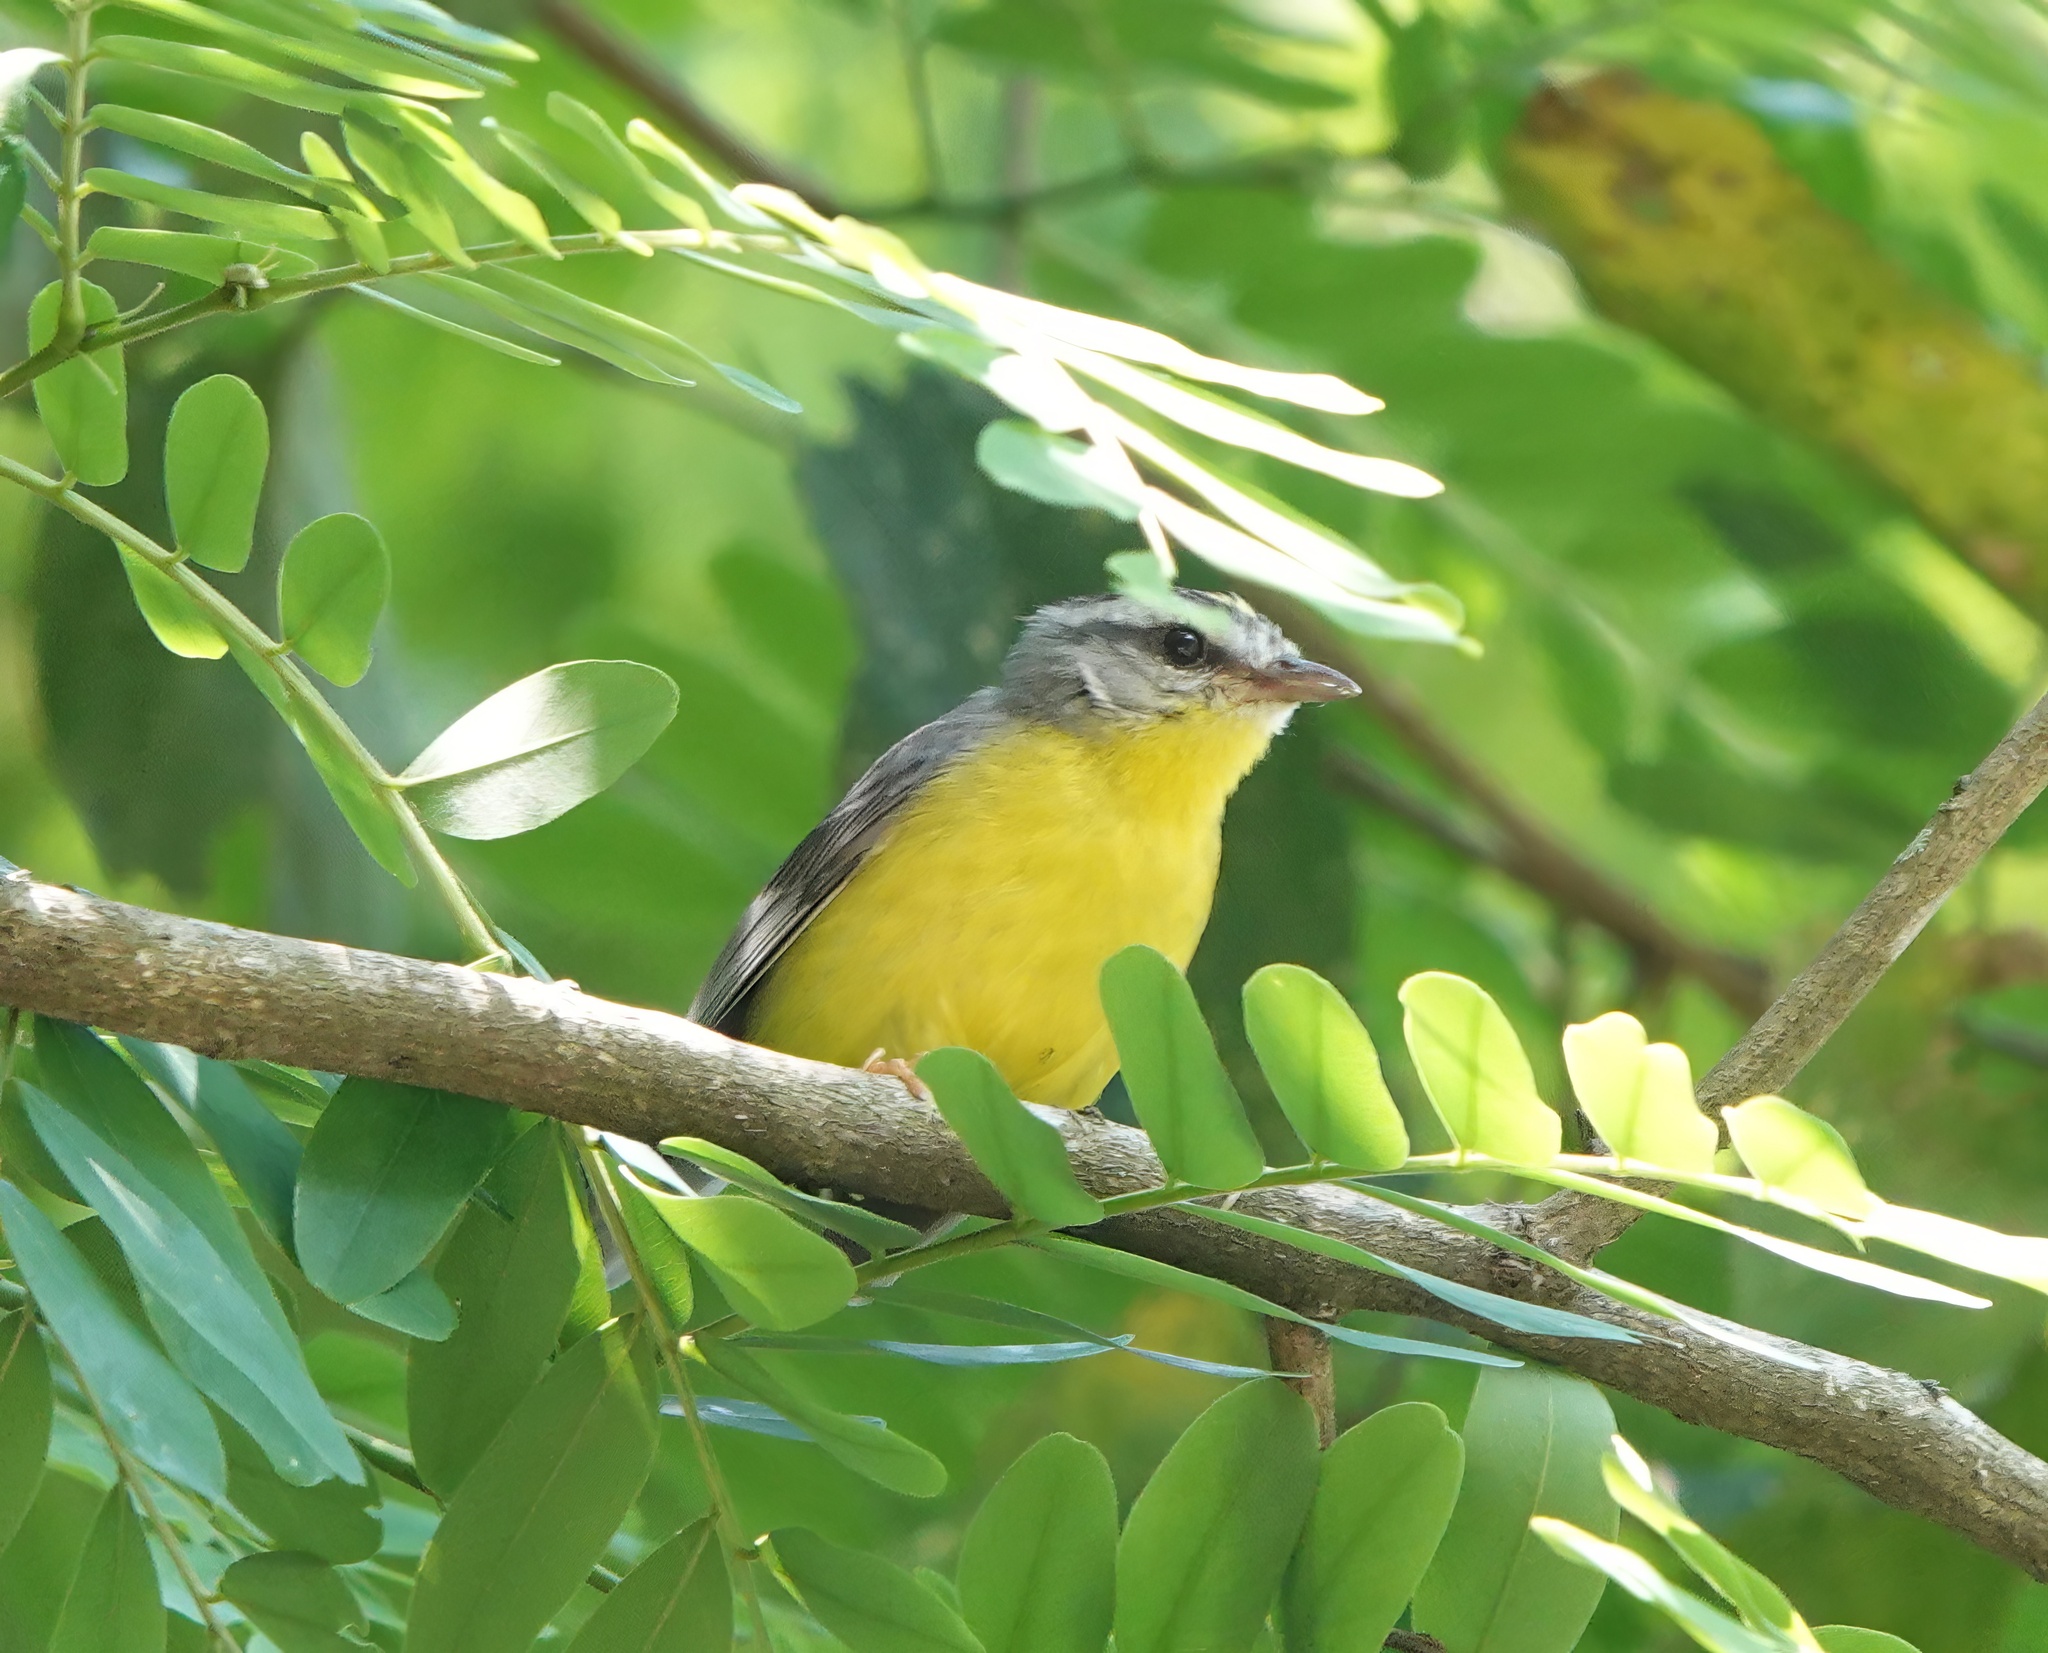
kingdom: Animalia
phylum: Chordata
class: Aves
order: Passeriformes
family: Parulidae
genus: Basileuterus
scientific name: Basileuterus culicivorus
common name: Golden-crowned warbler
